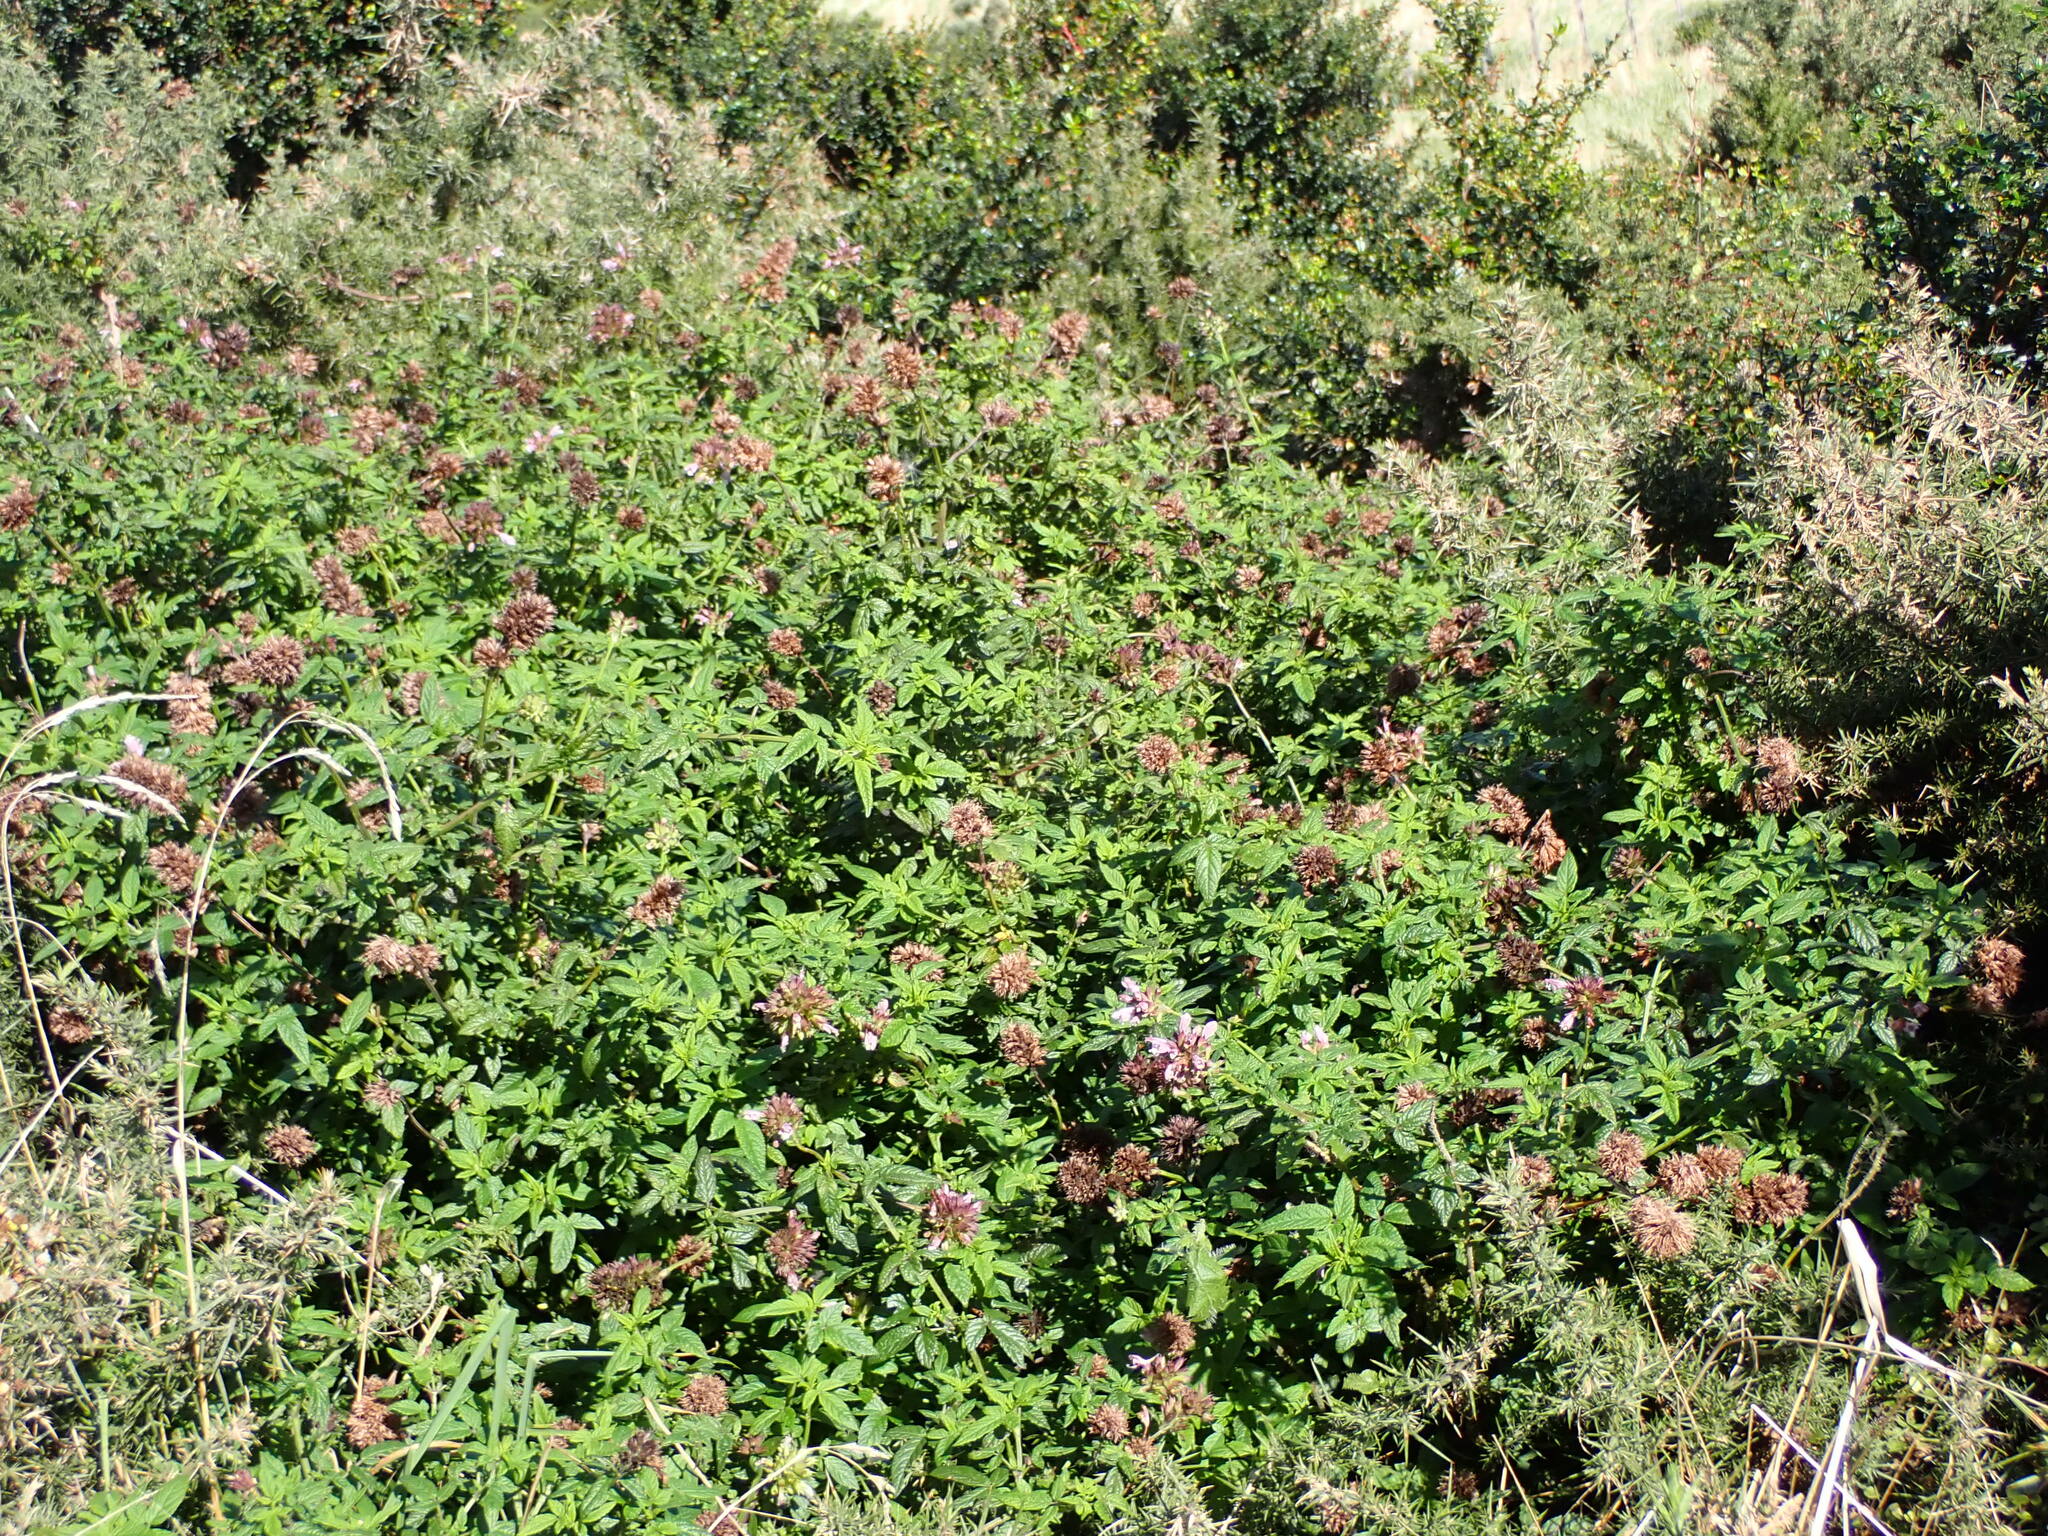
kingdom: Plantae
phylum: Tracheophyta
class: Magnoliopsida
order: Lamiales
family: Lamiaceae
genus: Cedronella
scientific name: Cedronella canariensis
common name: Canary islands balm
